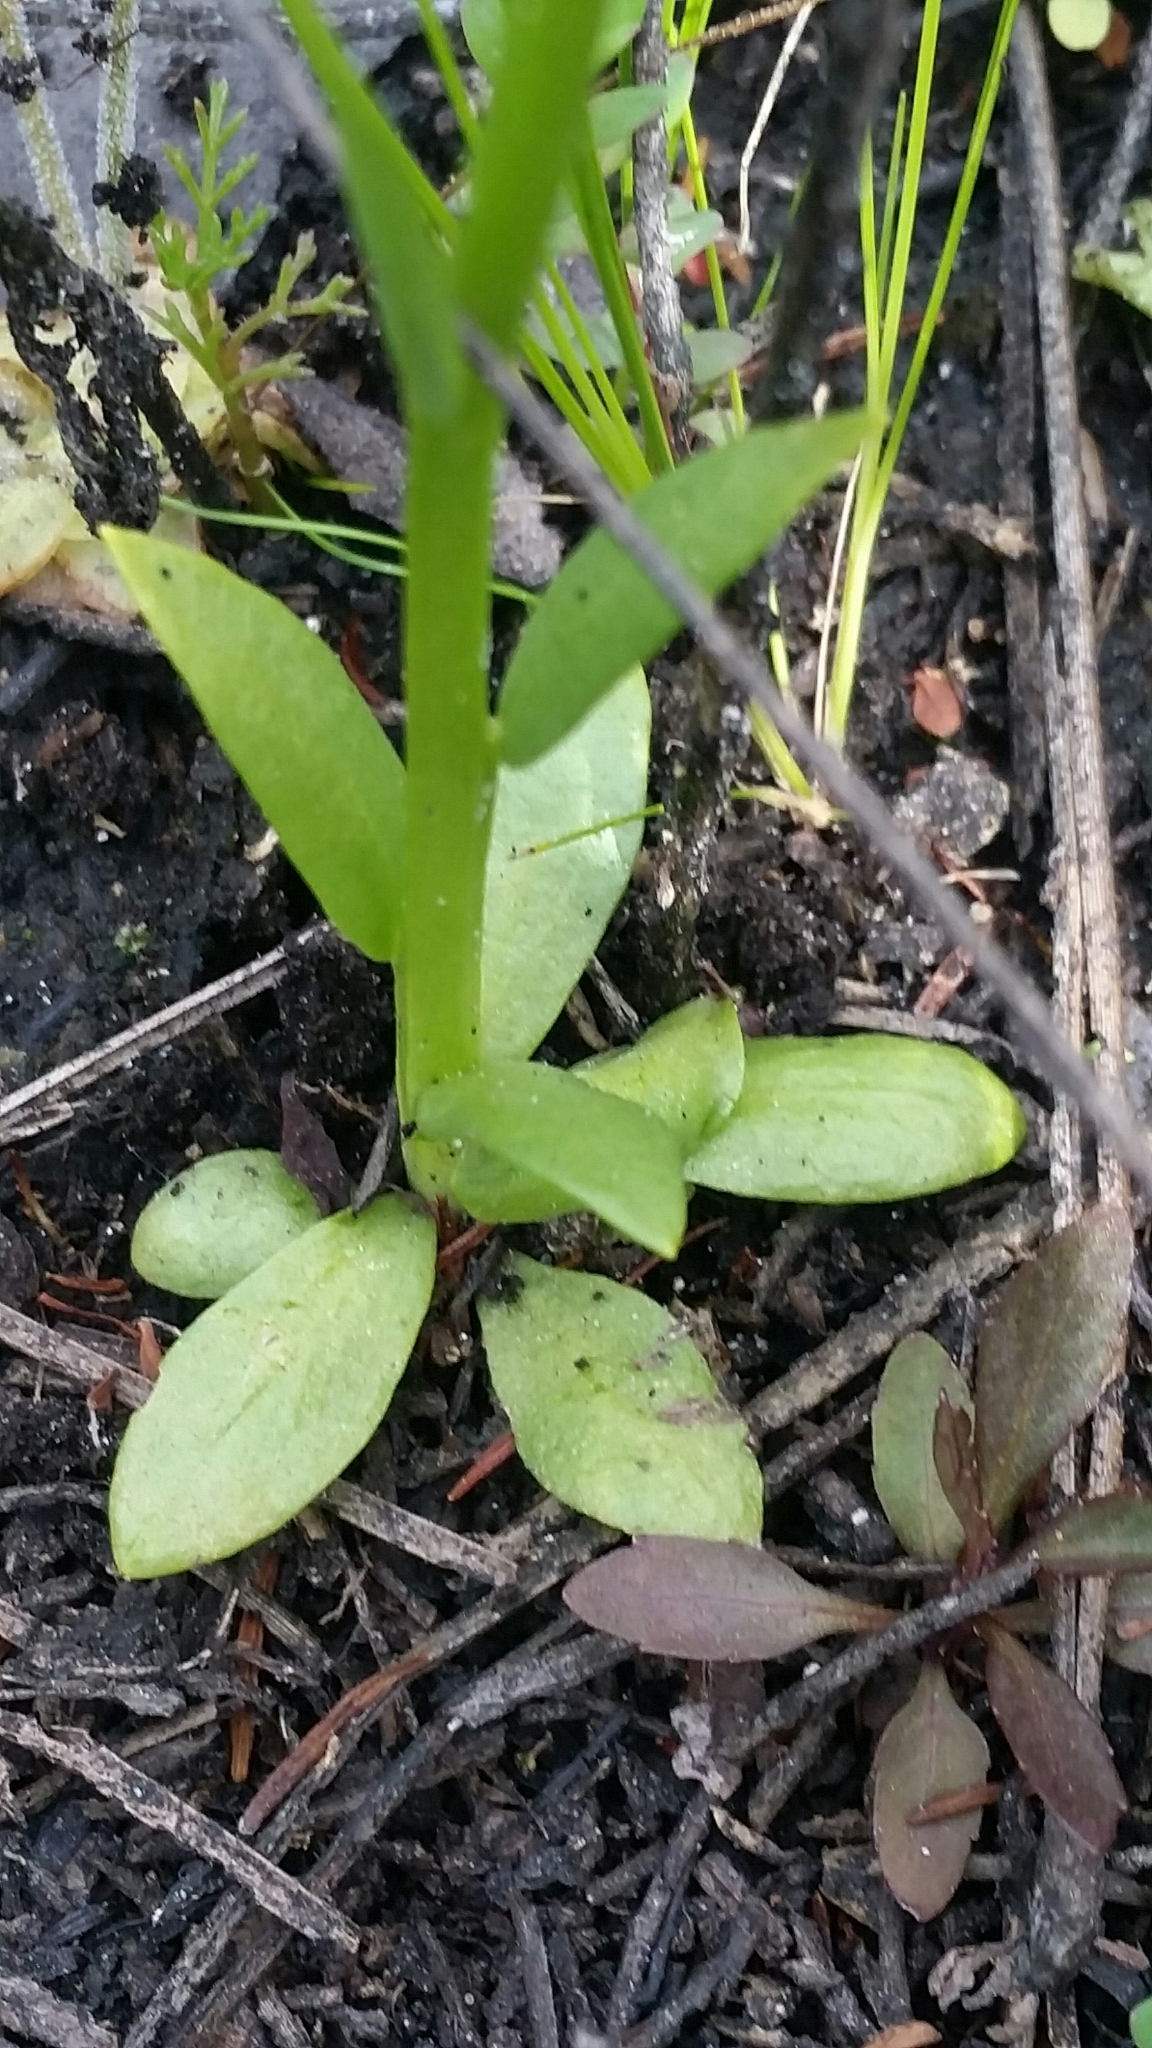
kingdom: Plantae
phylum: Tracheophyta
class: Magnoliopsida
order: Fabales
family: Polygalaceae
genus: Polygala
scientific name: Polygala baldwinii
